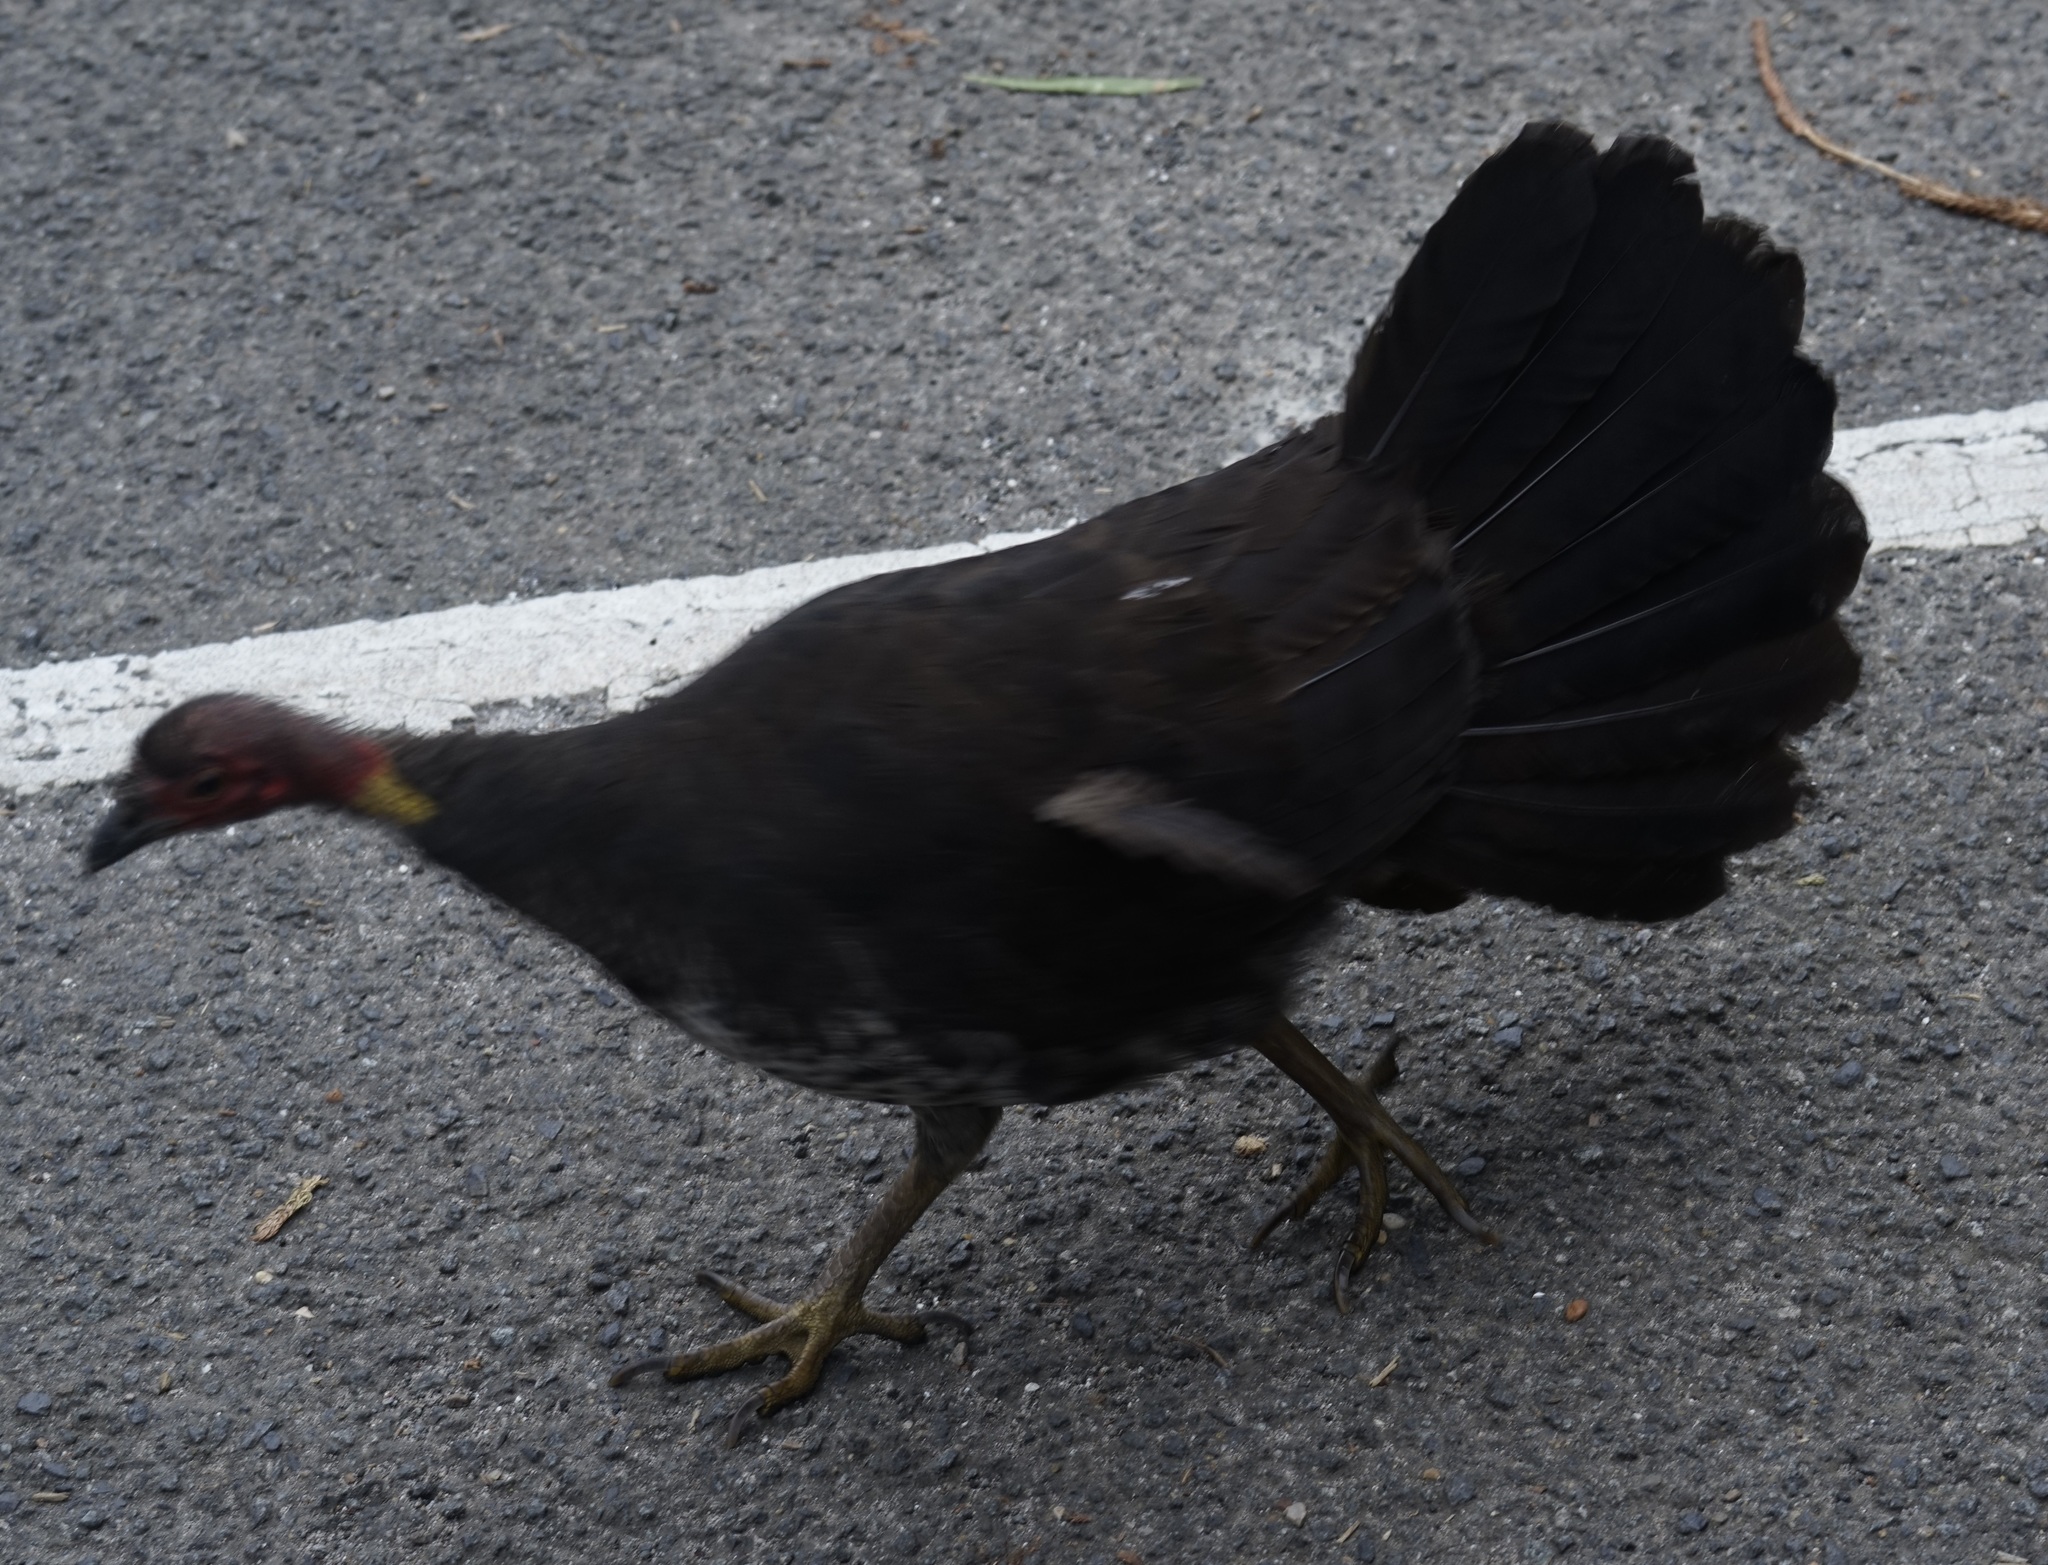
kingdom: Animalia
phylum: Chordata
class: Aves
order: Galliformes
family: Megapodiidae
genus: Alectura
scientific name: Alectura lathami
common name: Australian brushturkey
